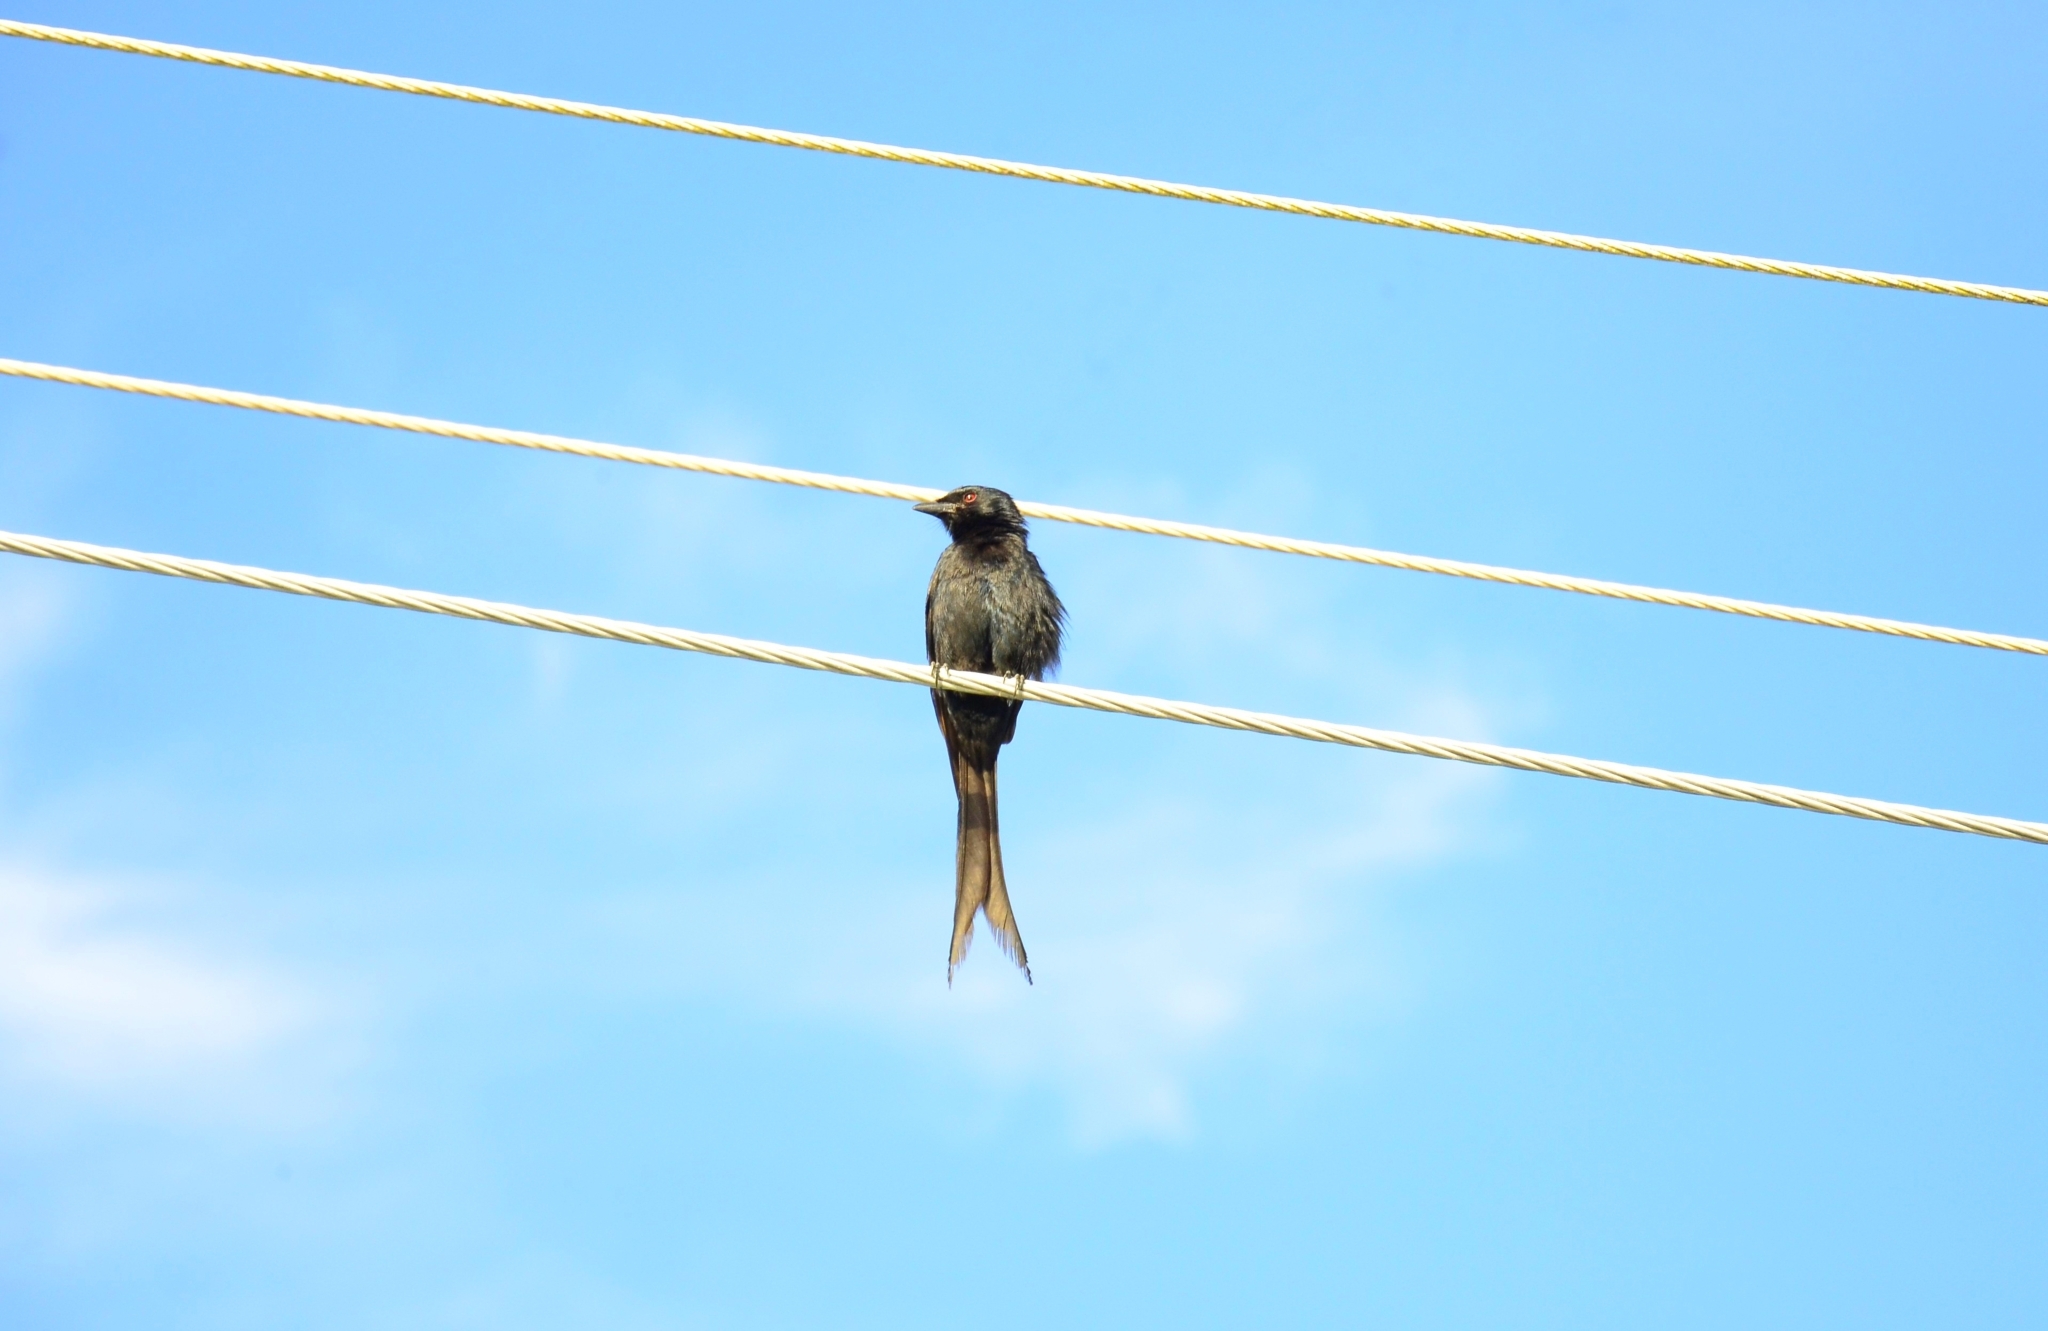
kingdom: Animalia
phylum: Chordata
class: Aves
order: Passeriformes
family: Dicruridae
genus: Dicrurus
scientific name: Dicrurus macrocercus
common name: Black drongo
